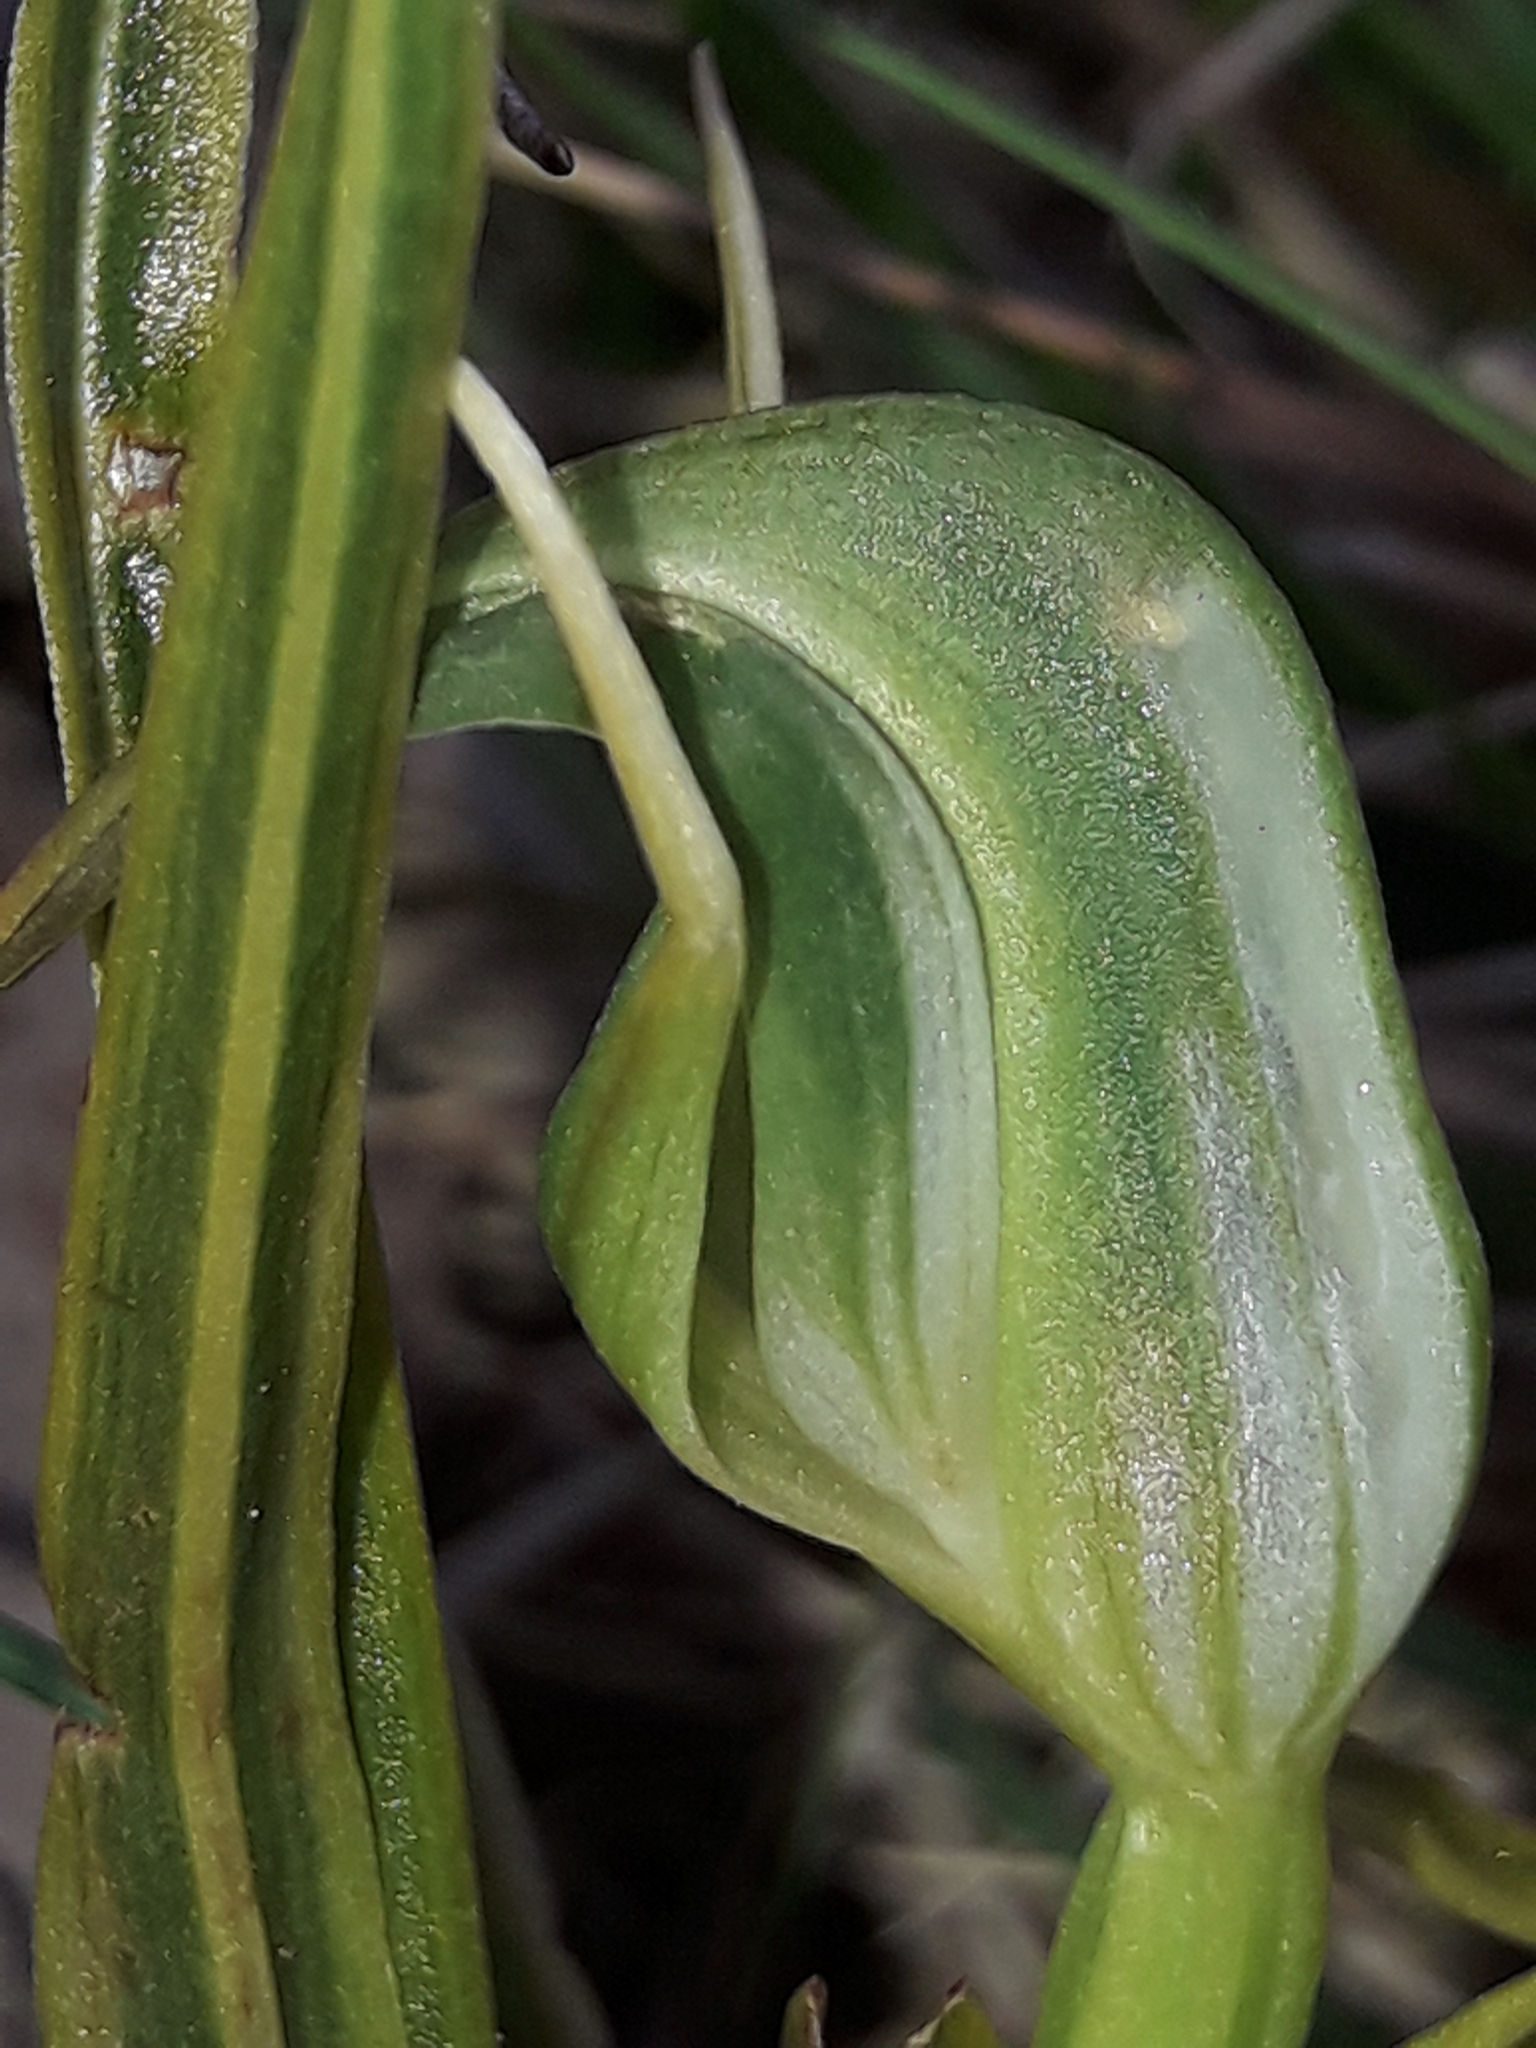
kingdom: Plantae
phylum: Tracheophyta
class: Liliopsida
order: Asparagales
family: Orchidaceae
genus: Pterostylis
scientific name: Pterostylis graminea
